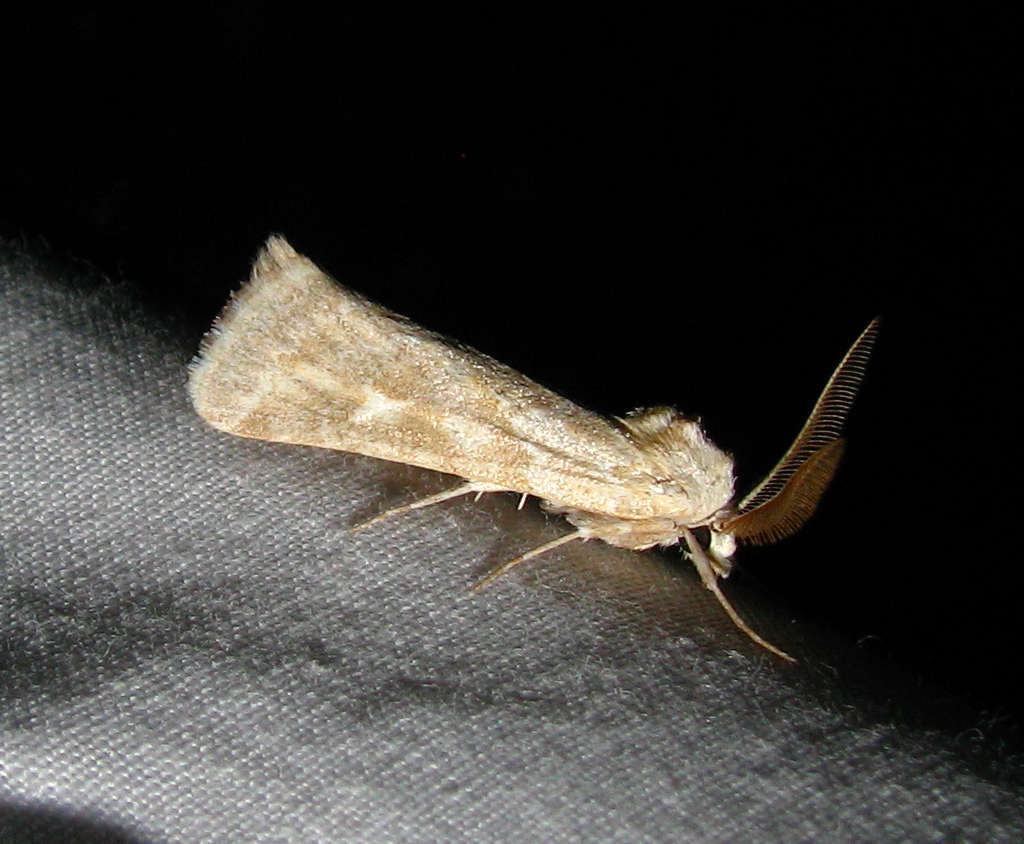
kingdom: Animalia
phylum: Arthropoda
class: Insecta
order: Lepidoptera
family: Noctuidae
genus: Eremochroa
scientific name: Eremochroa alphitias
